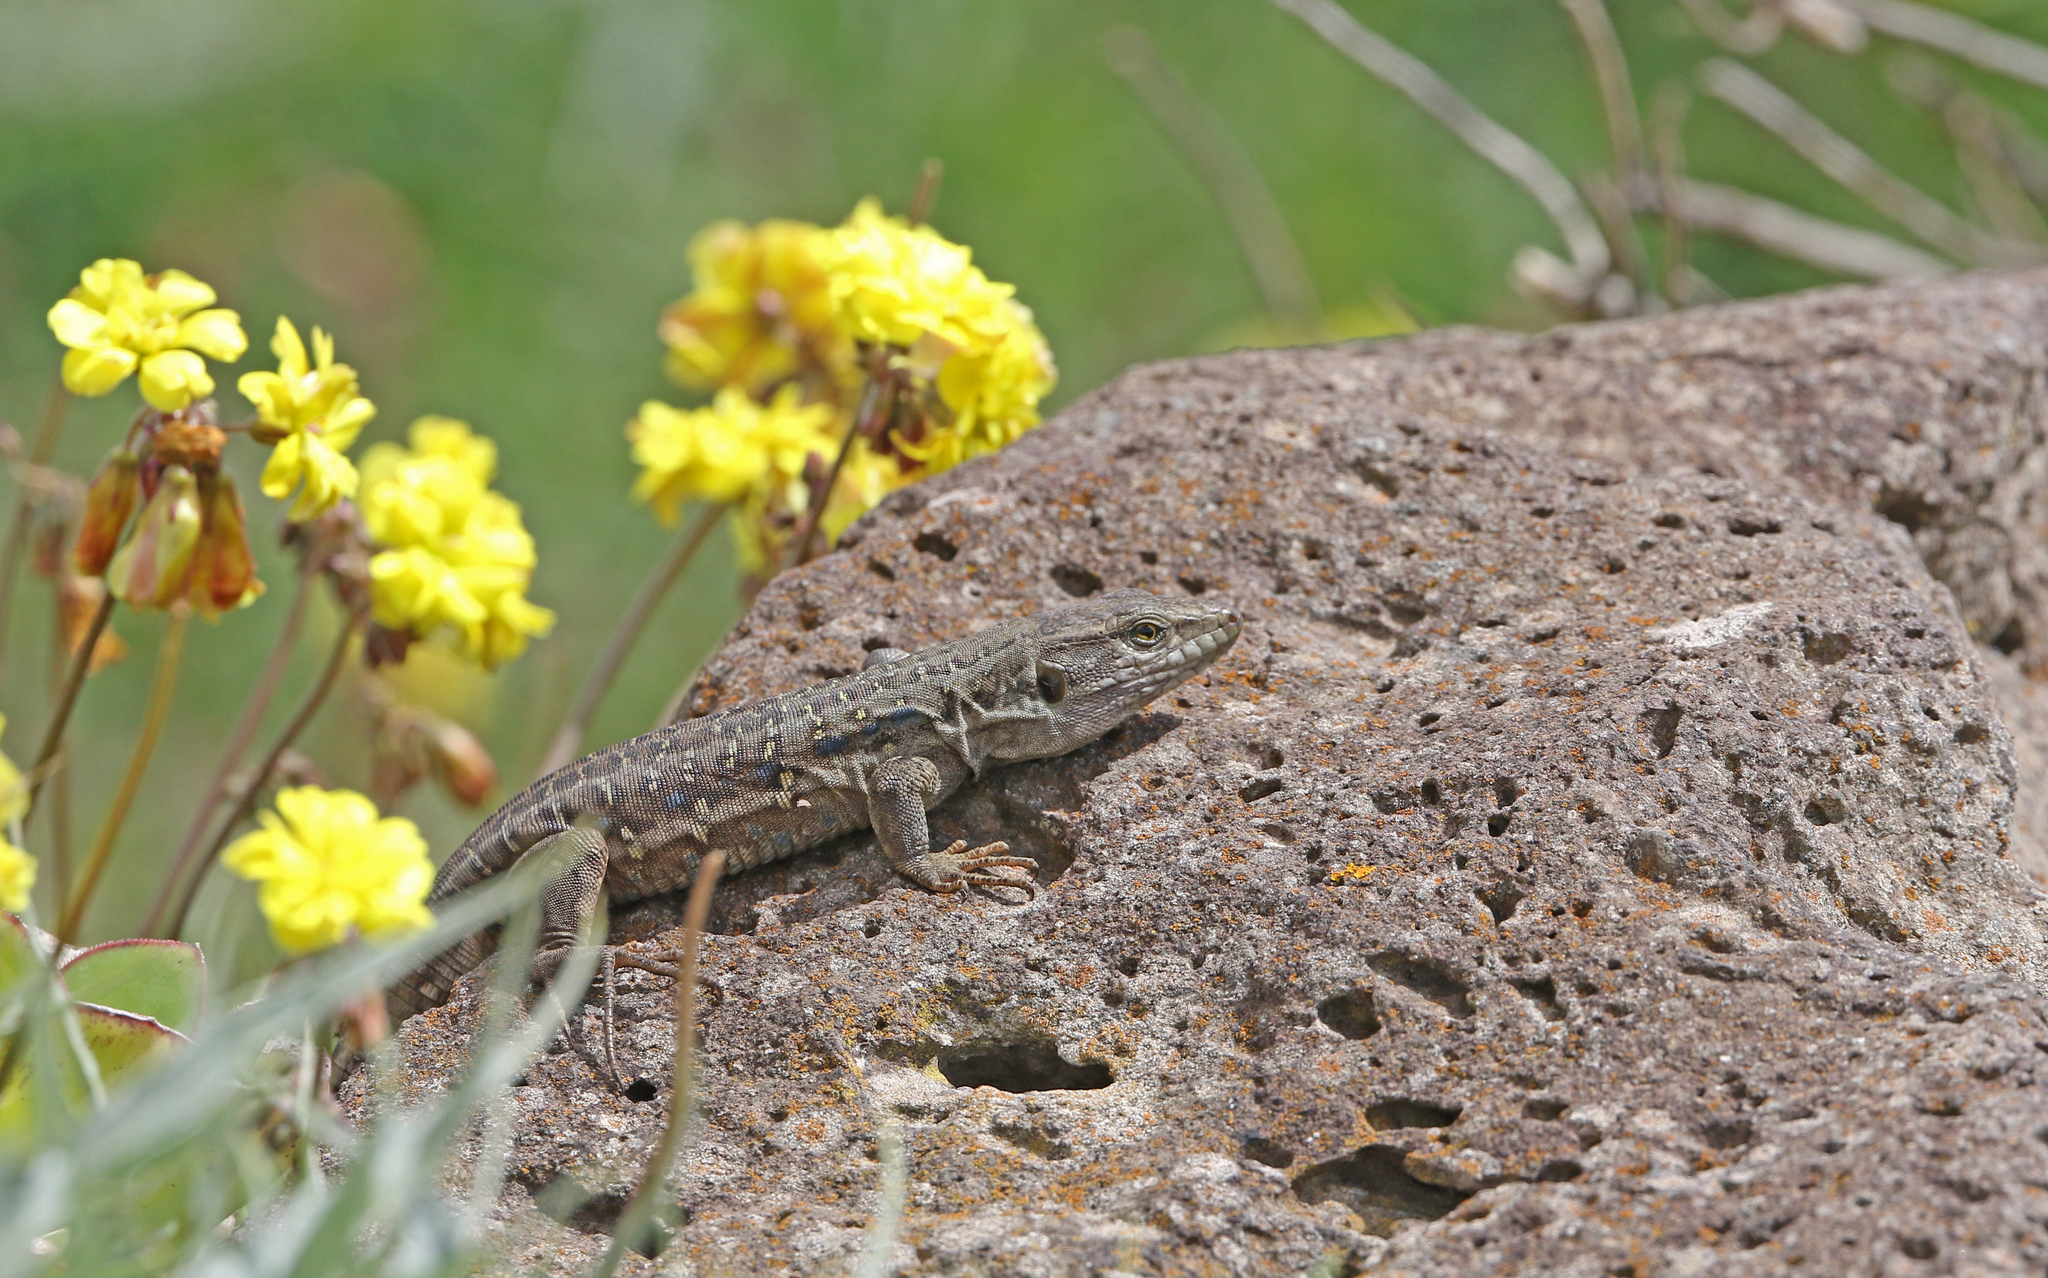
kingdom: Animalia
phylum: Chordata
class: Squamata
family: Lacertidae
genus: Gallotia
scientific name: Gallotia galloti
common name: Gallot's lizard
